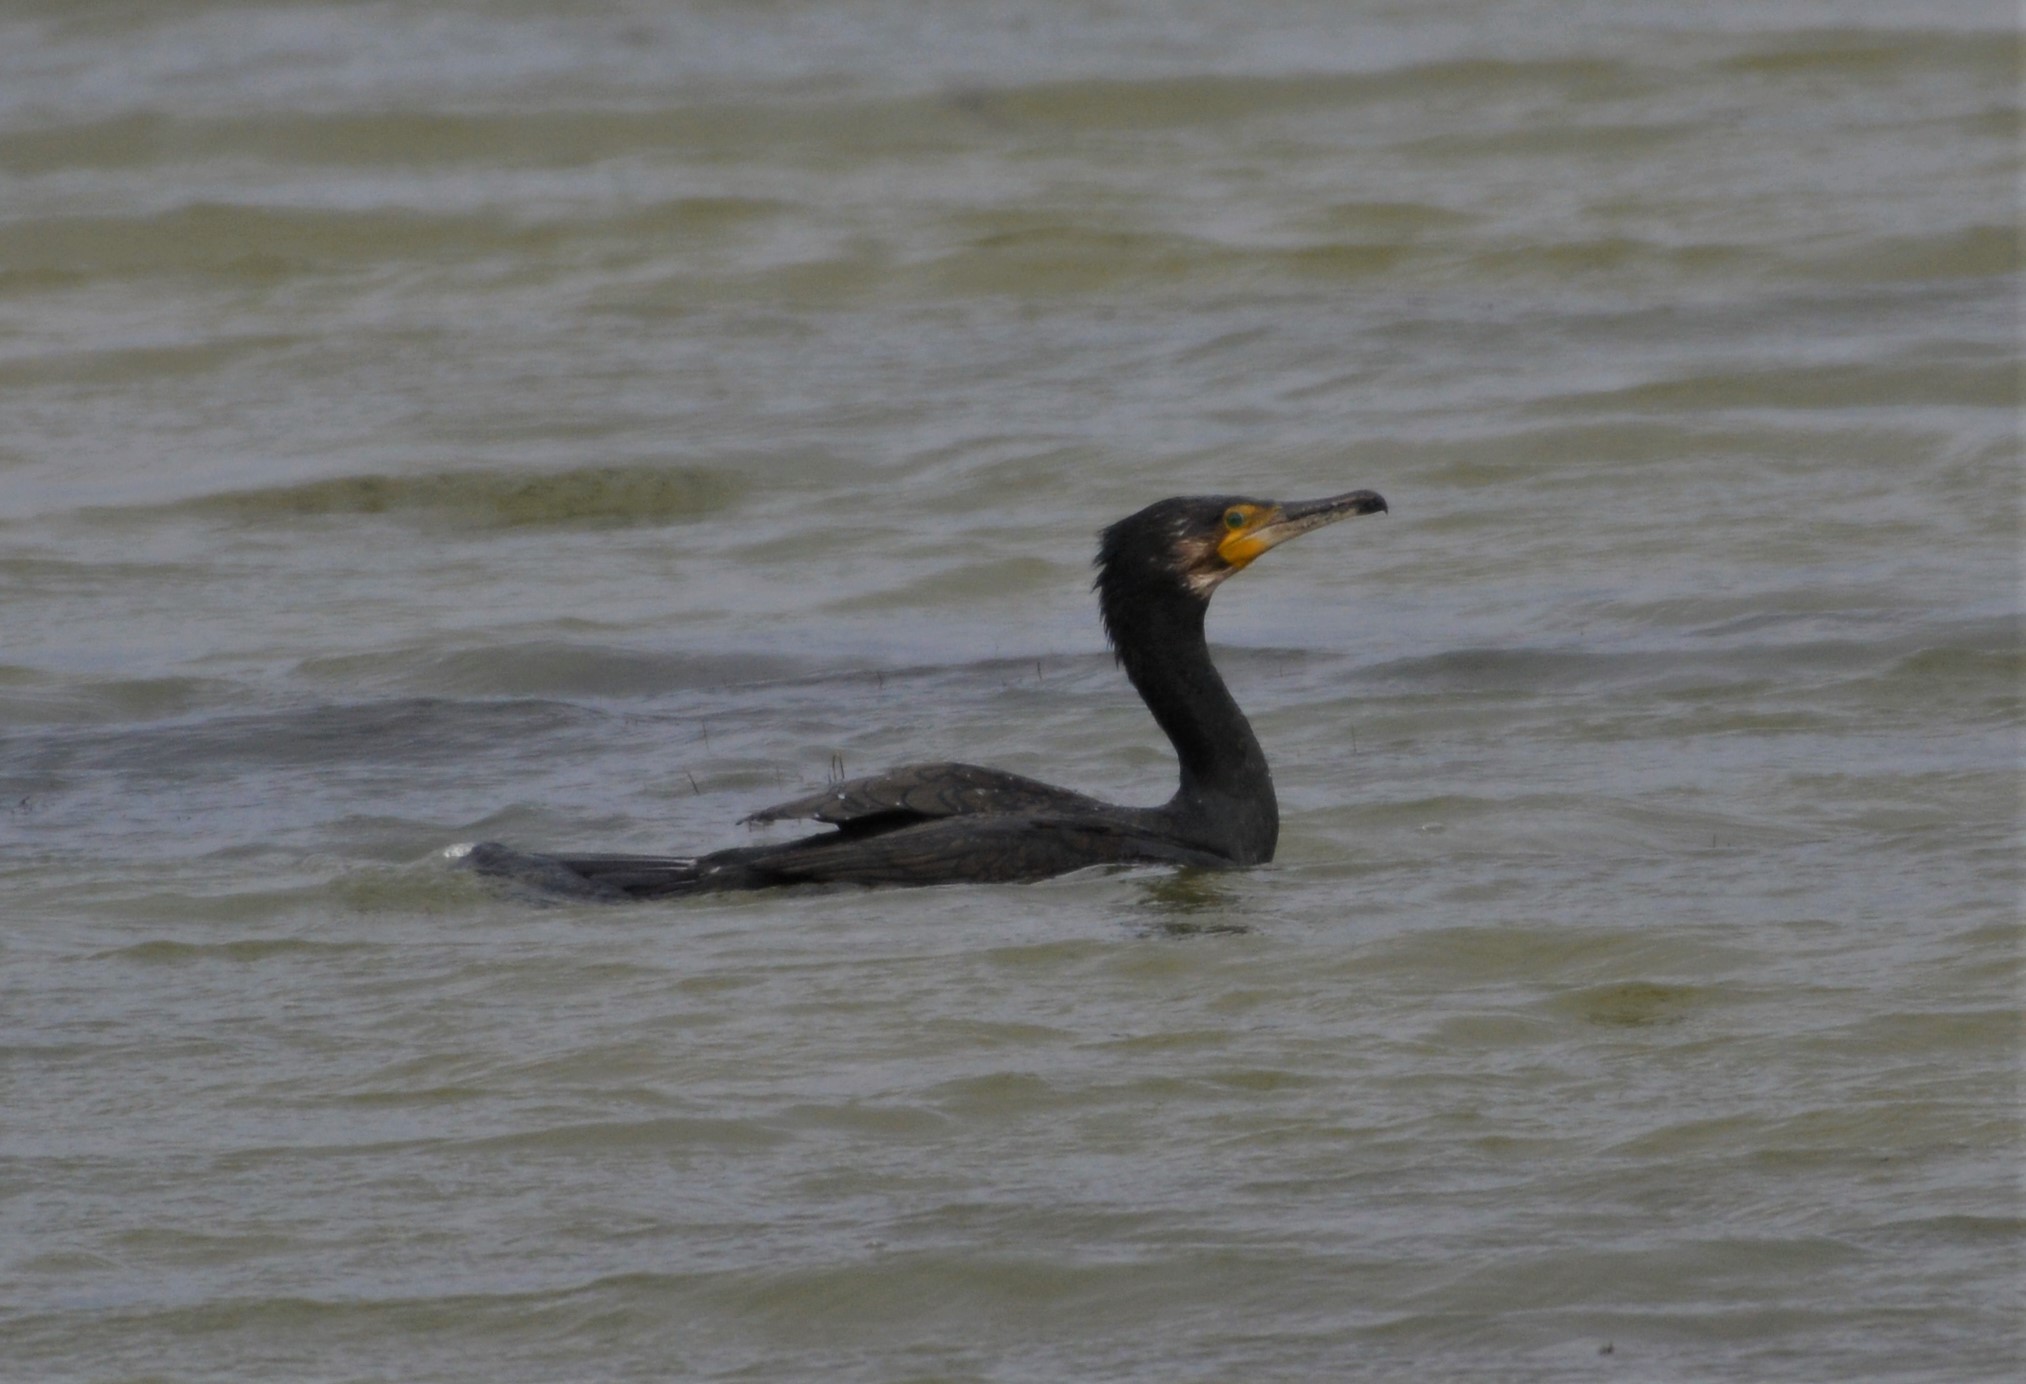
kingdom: Animalia
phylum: Chordata
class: Aves
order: Suliformes
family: Phalacrocoracidae
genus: Phalacrocorax
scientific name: Phalacrocorax carbo
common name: Great cormorant
